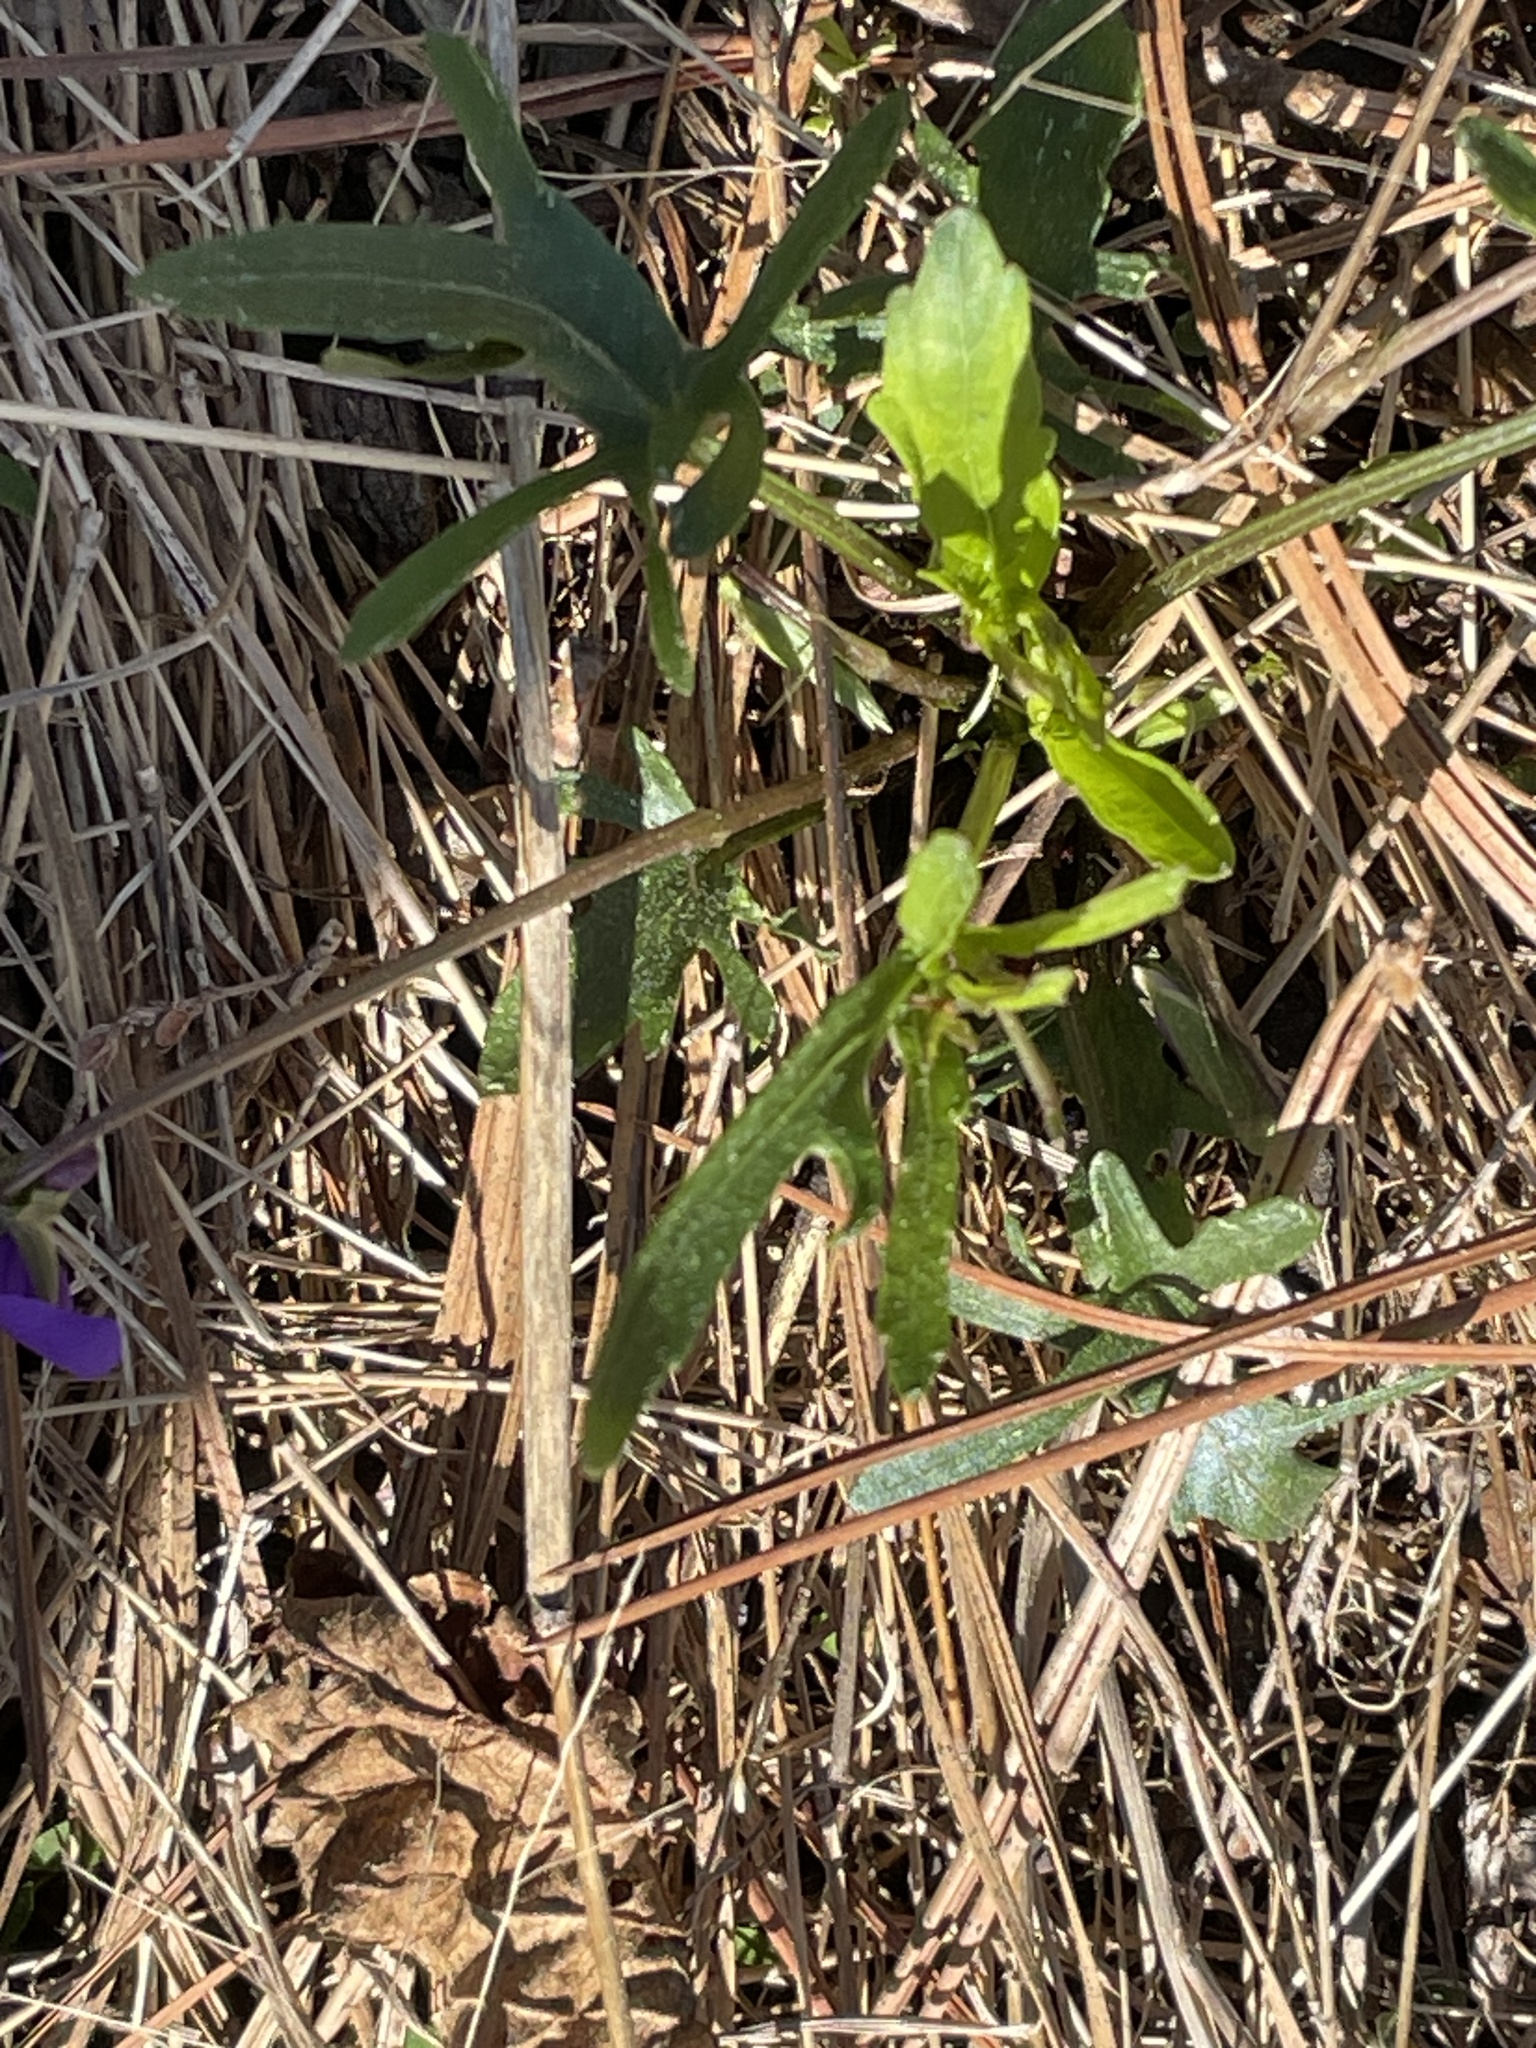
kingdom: Plantae
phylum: Tracheophyta
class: Magnoliopsida
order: Malpighiales
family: Violaceae
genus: Viola
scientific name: Viola palmata
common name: Early blue violet
